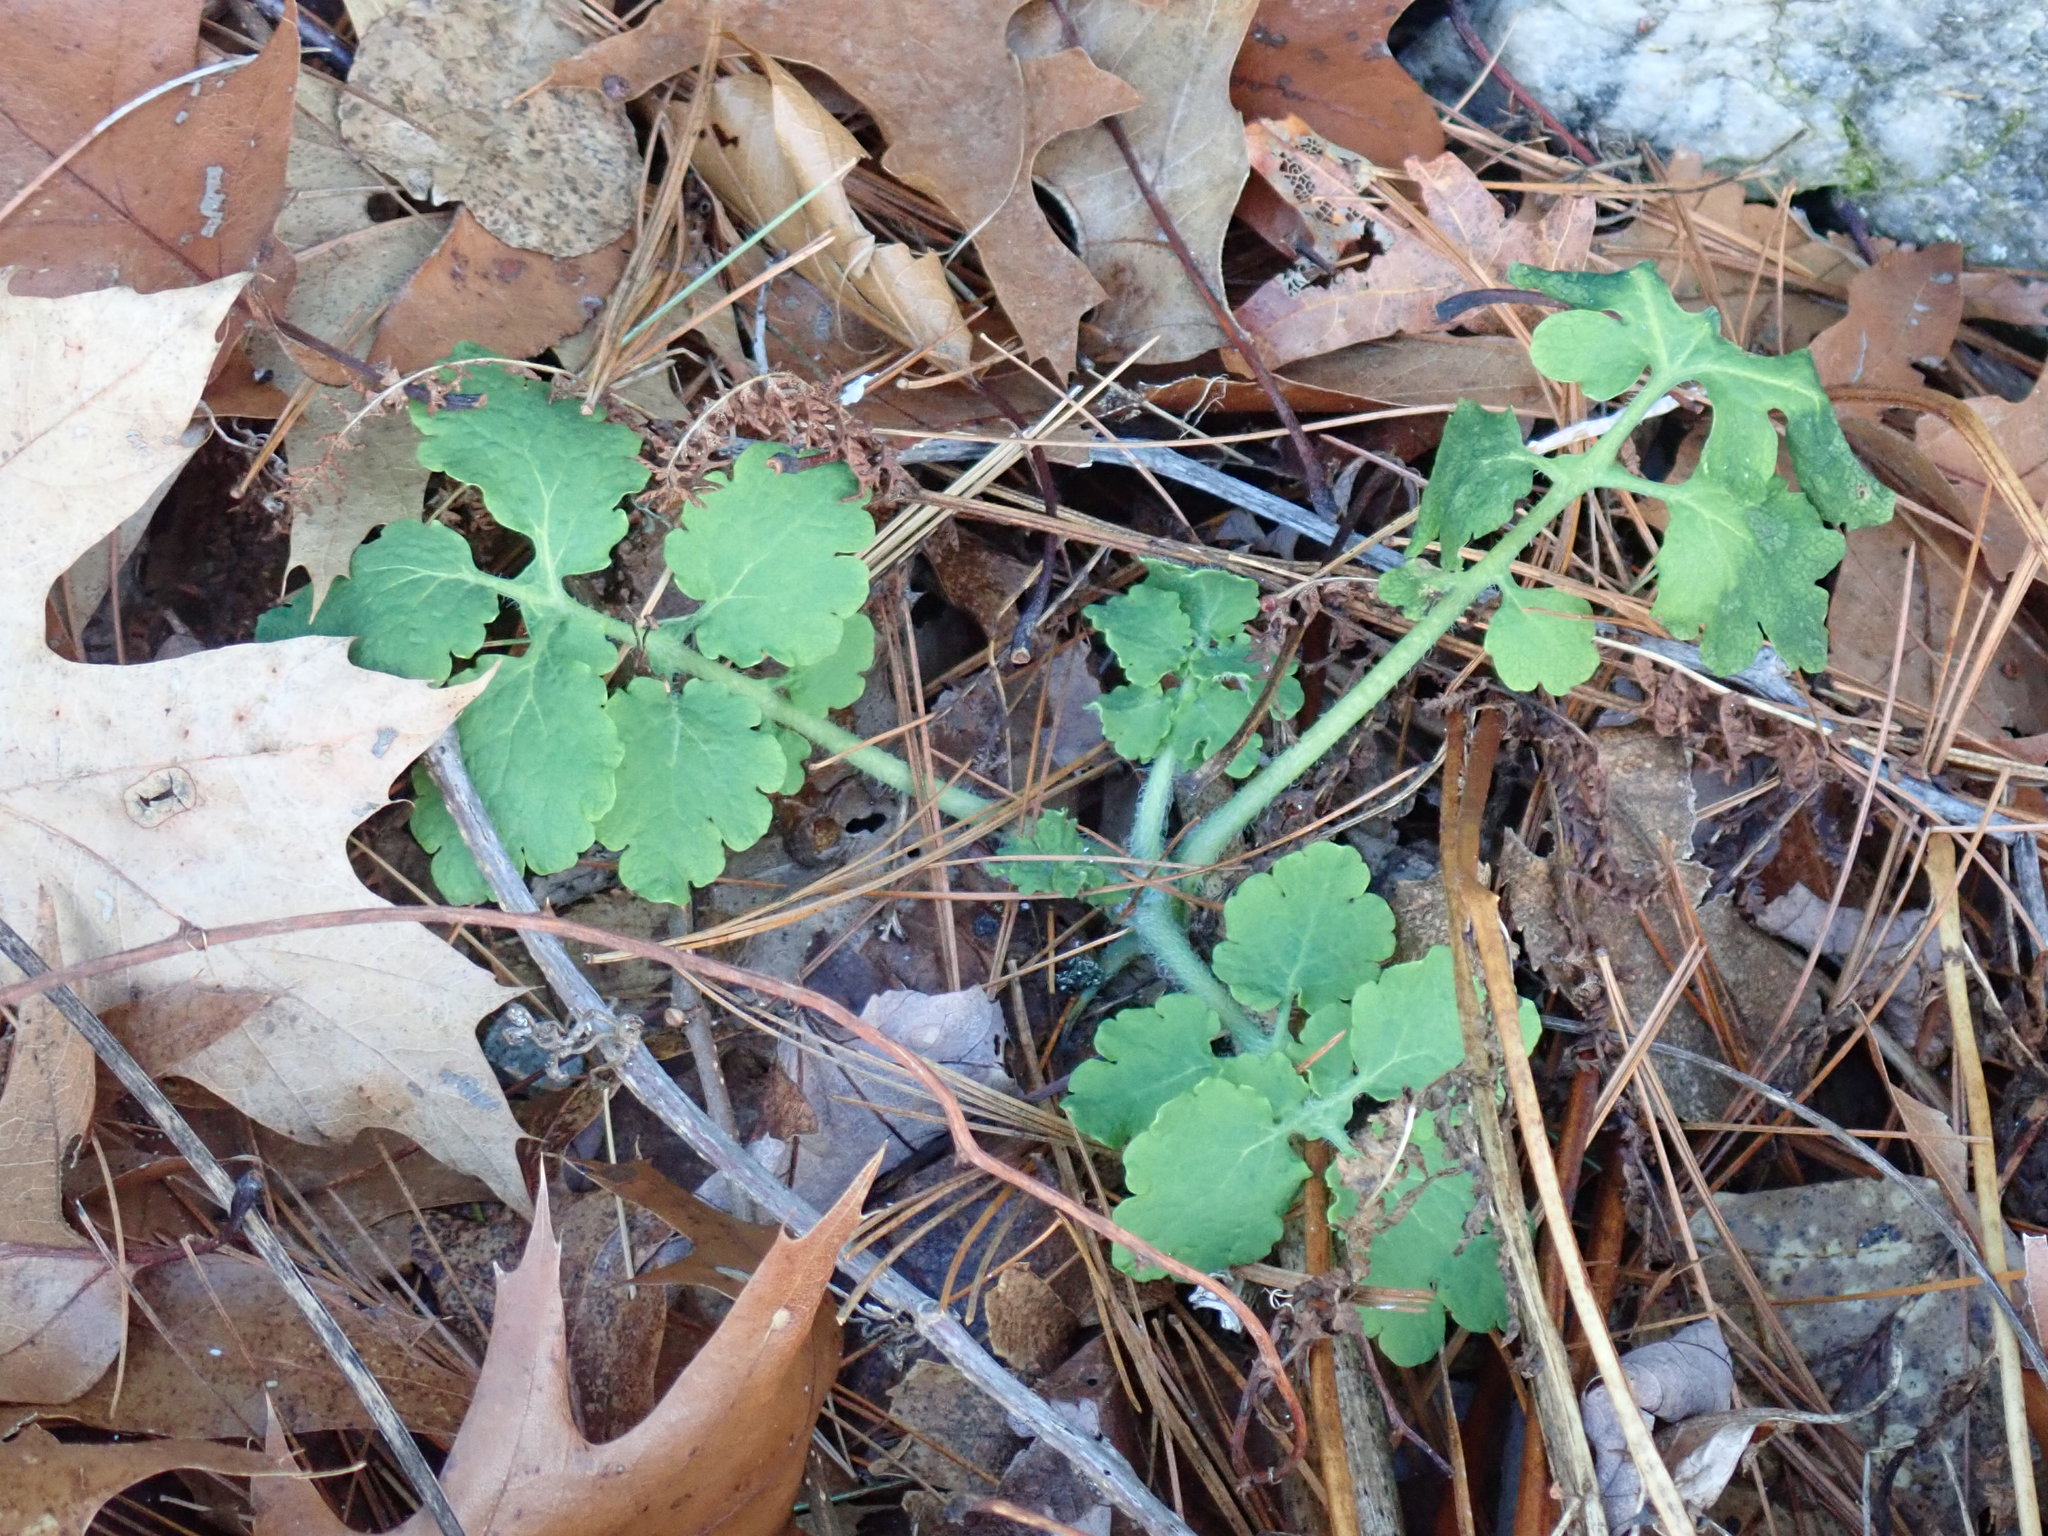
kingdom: Plantae
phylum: Tracheophyta
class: Magnoliopsida
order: Ranunculales
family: Papaveraceae
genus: Chelidonium
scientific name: Chelidonium majus
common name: Greater celandine
